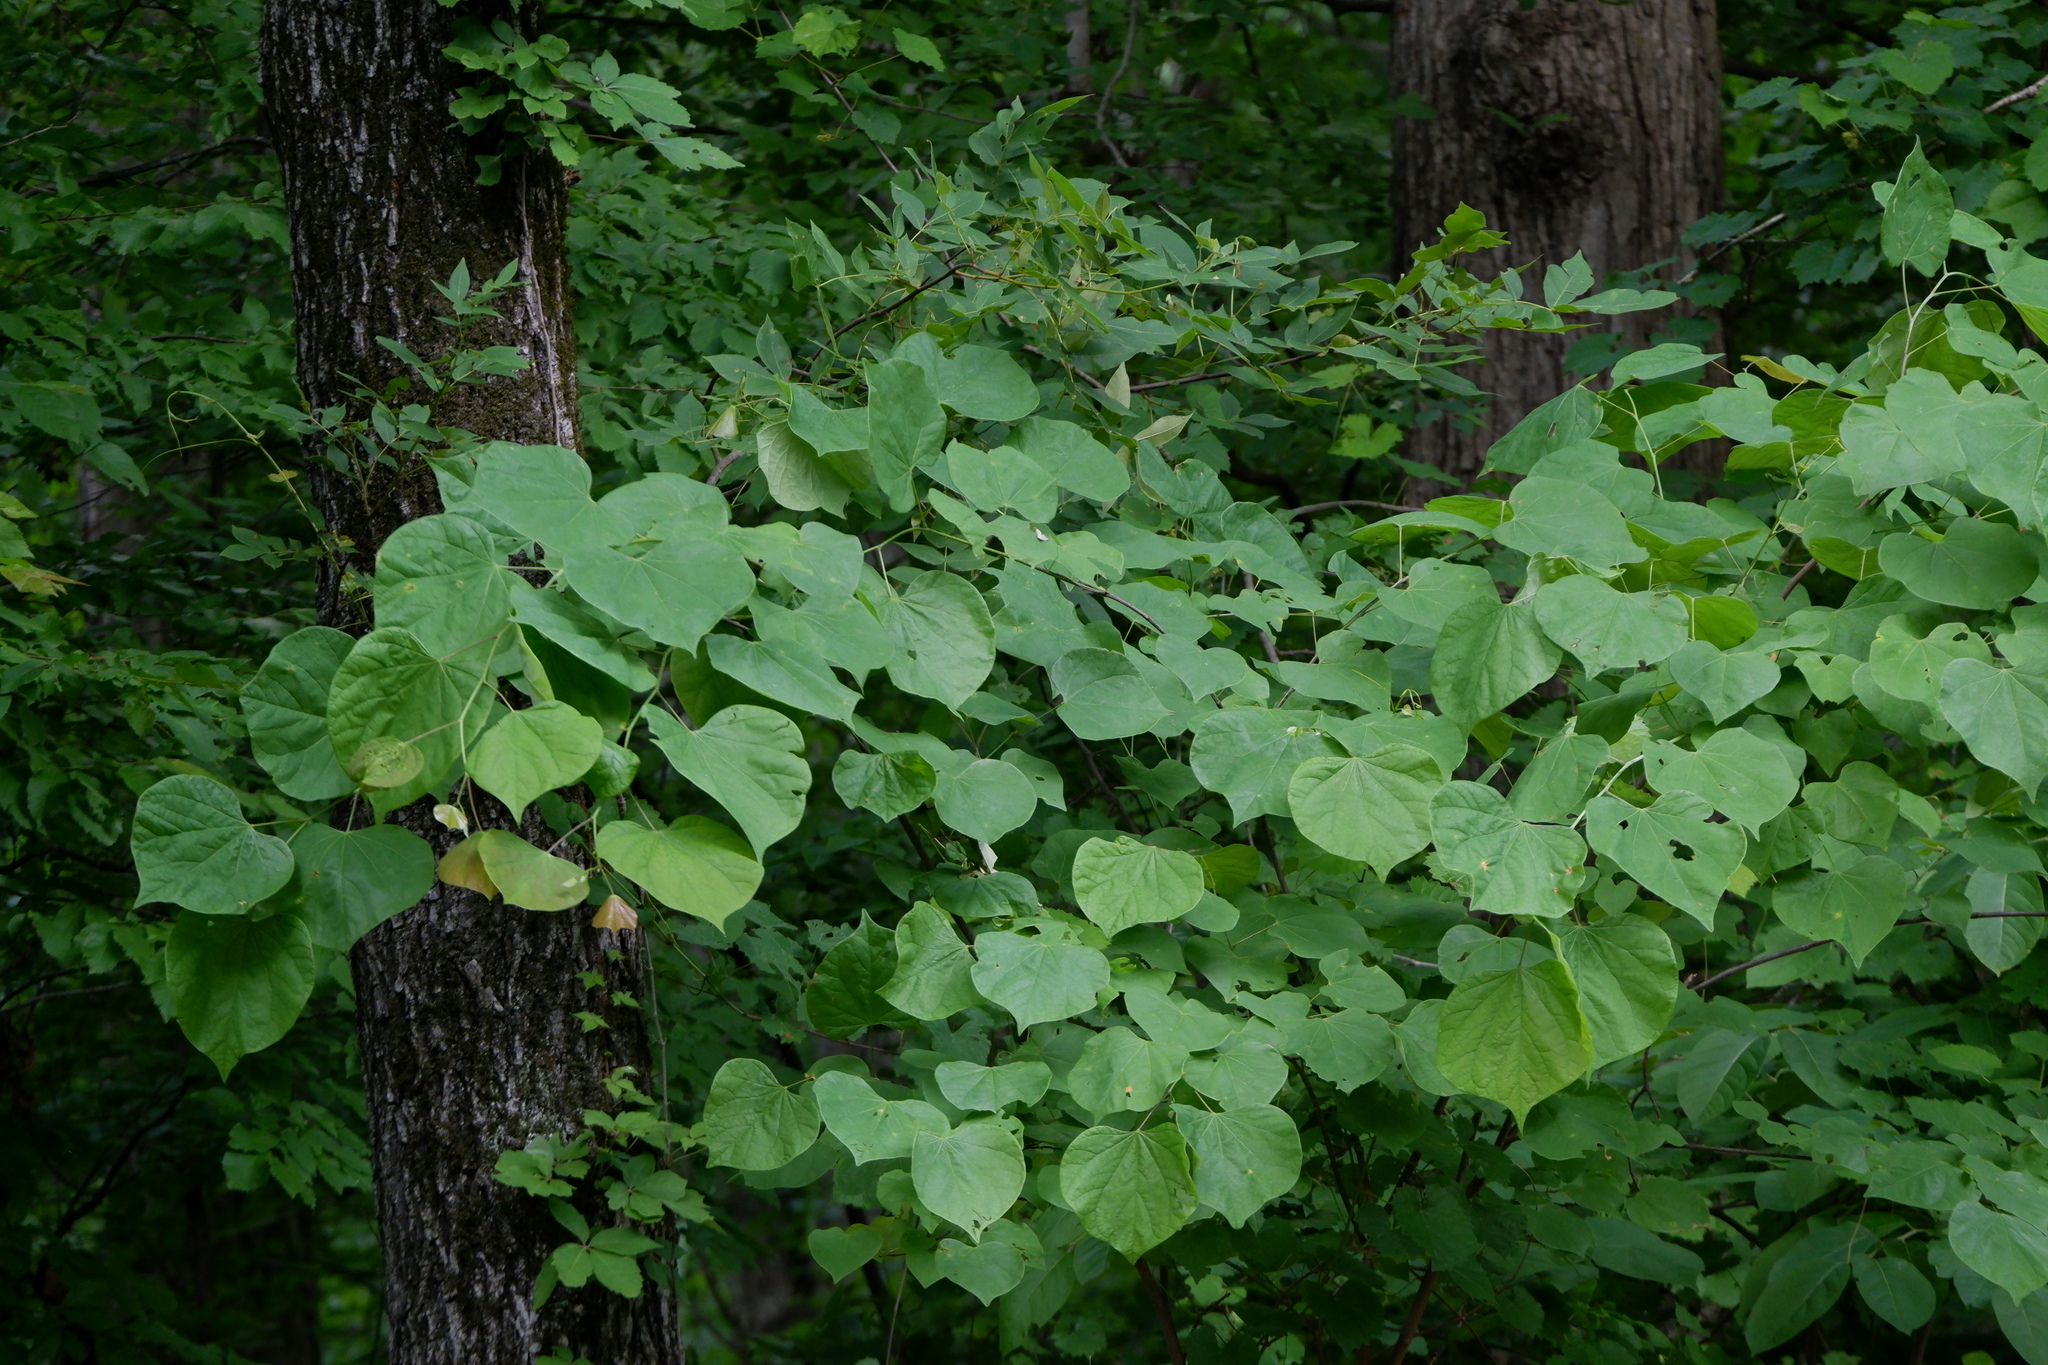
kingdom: Plantae
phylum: Tracheophyta
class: Magnoliopsida
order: Fabales
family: Fabaceae
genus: Cercis
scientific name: Cercis canadensis
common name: Eastern redbud
